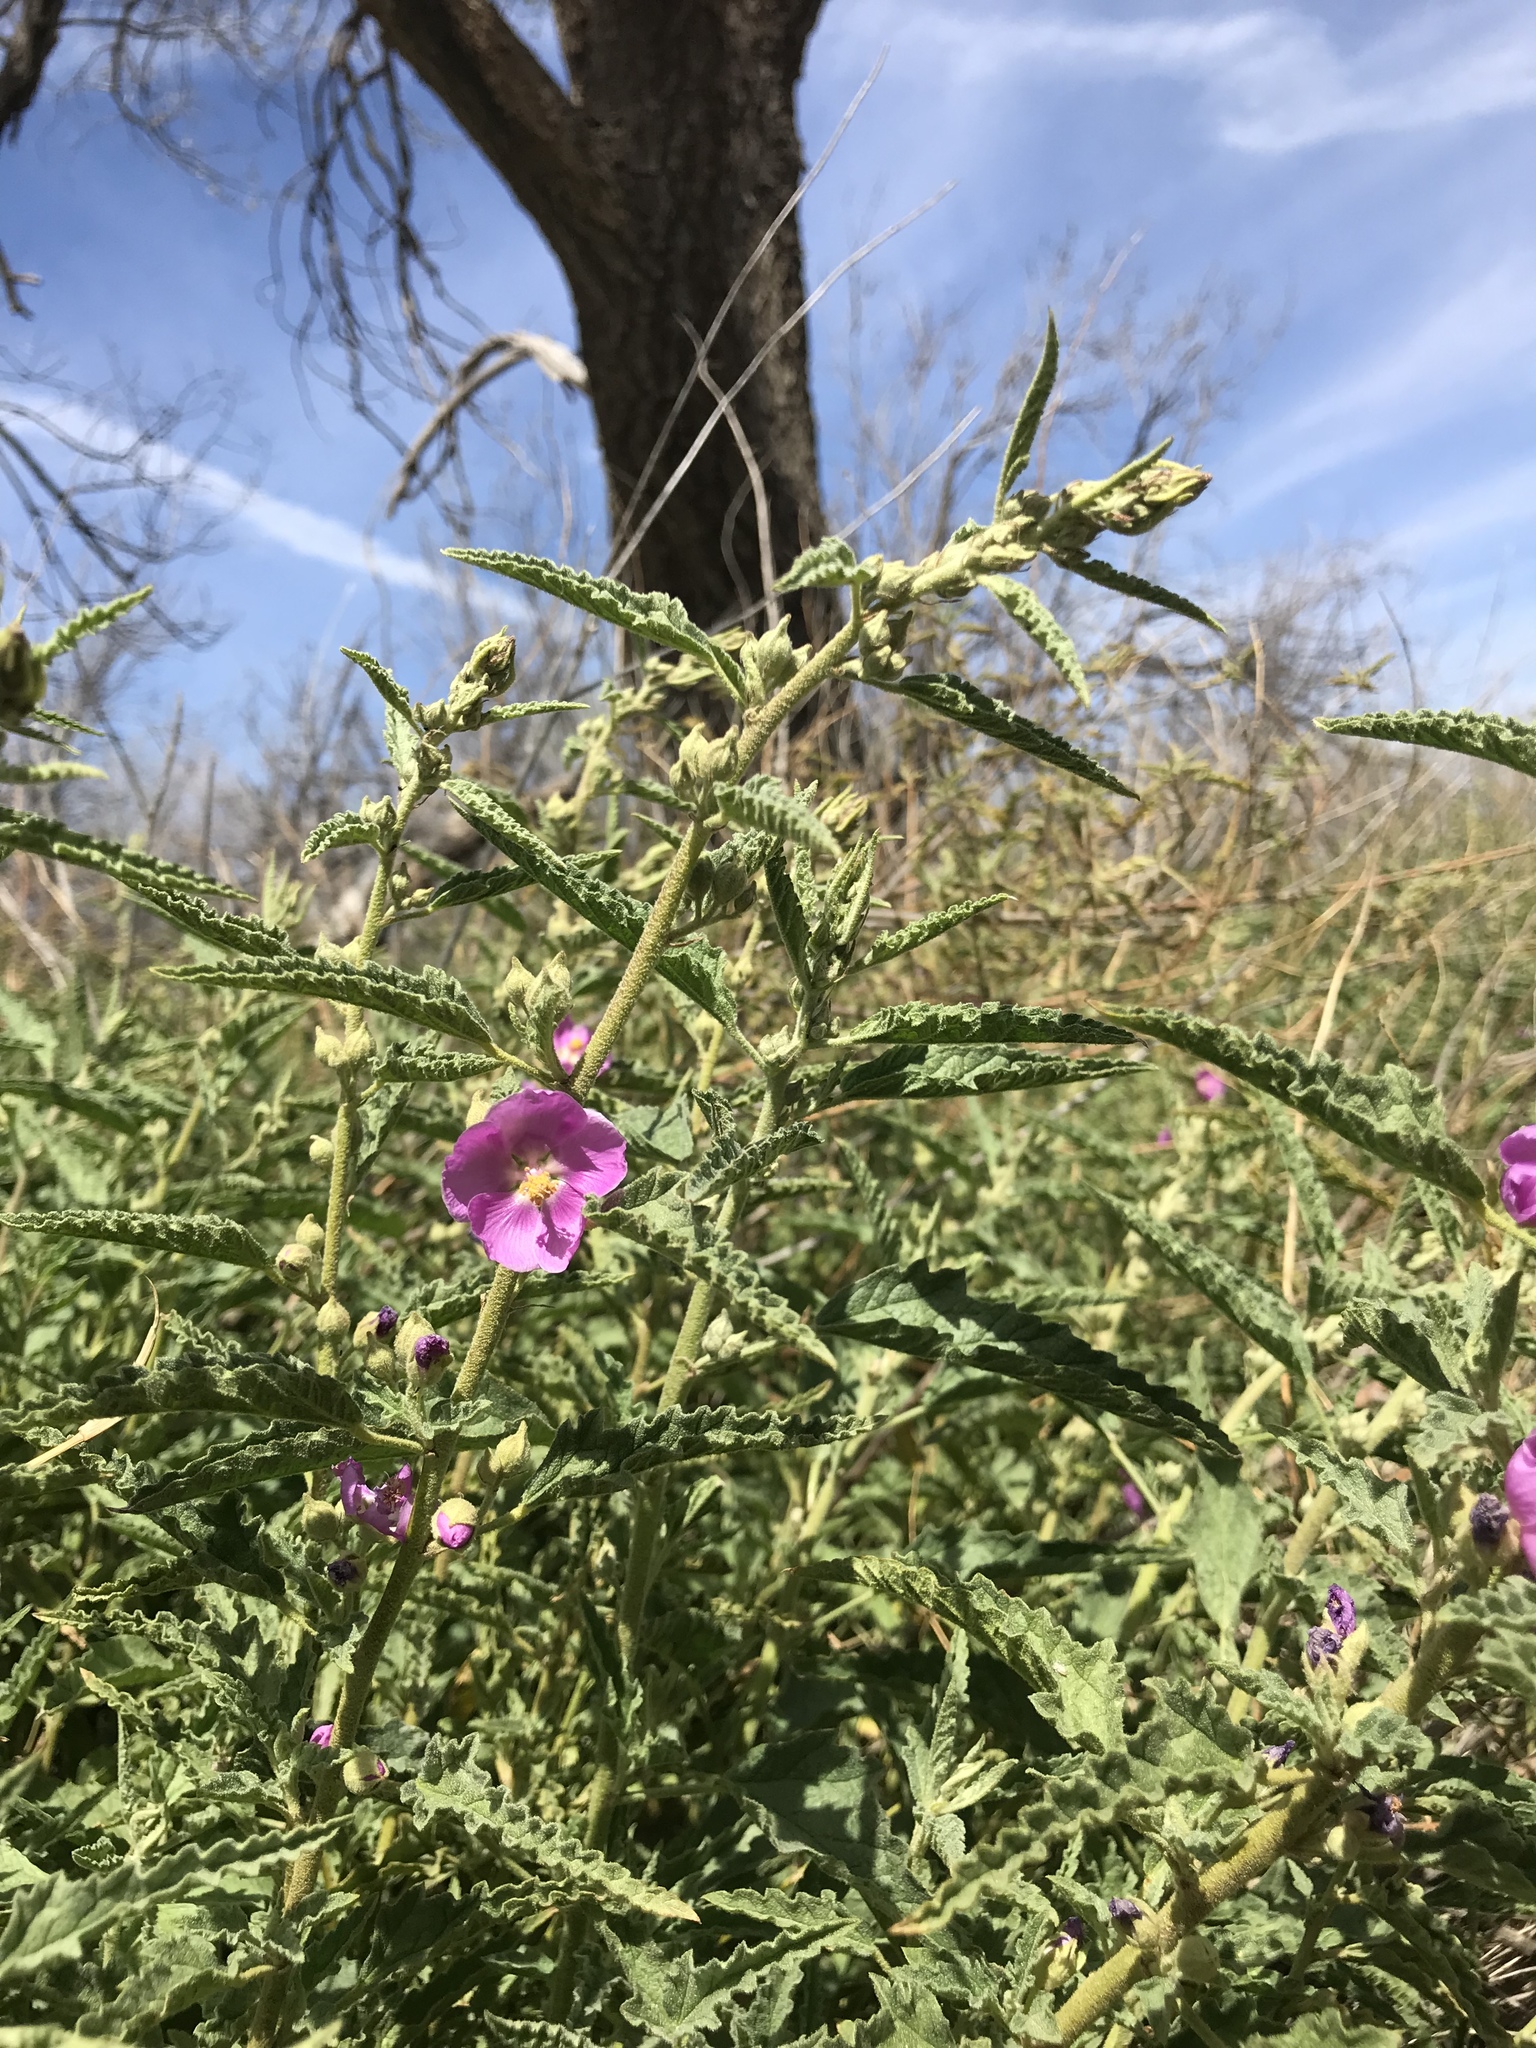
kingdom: Plantae
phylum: Tracheophyta
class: Magnoliopsida
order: Malvales
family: Malvaceae
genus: Sphaeralcea
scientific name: Sphaeralcea angustifolia
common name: Copper globe-mallow
